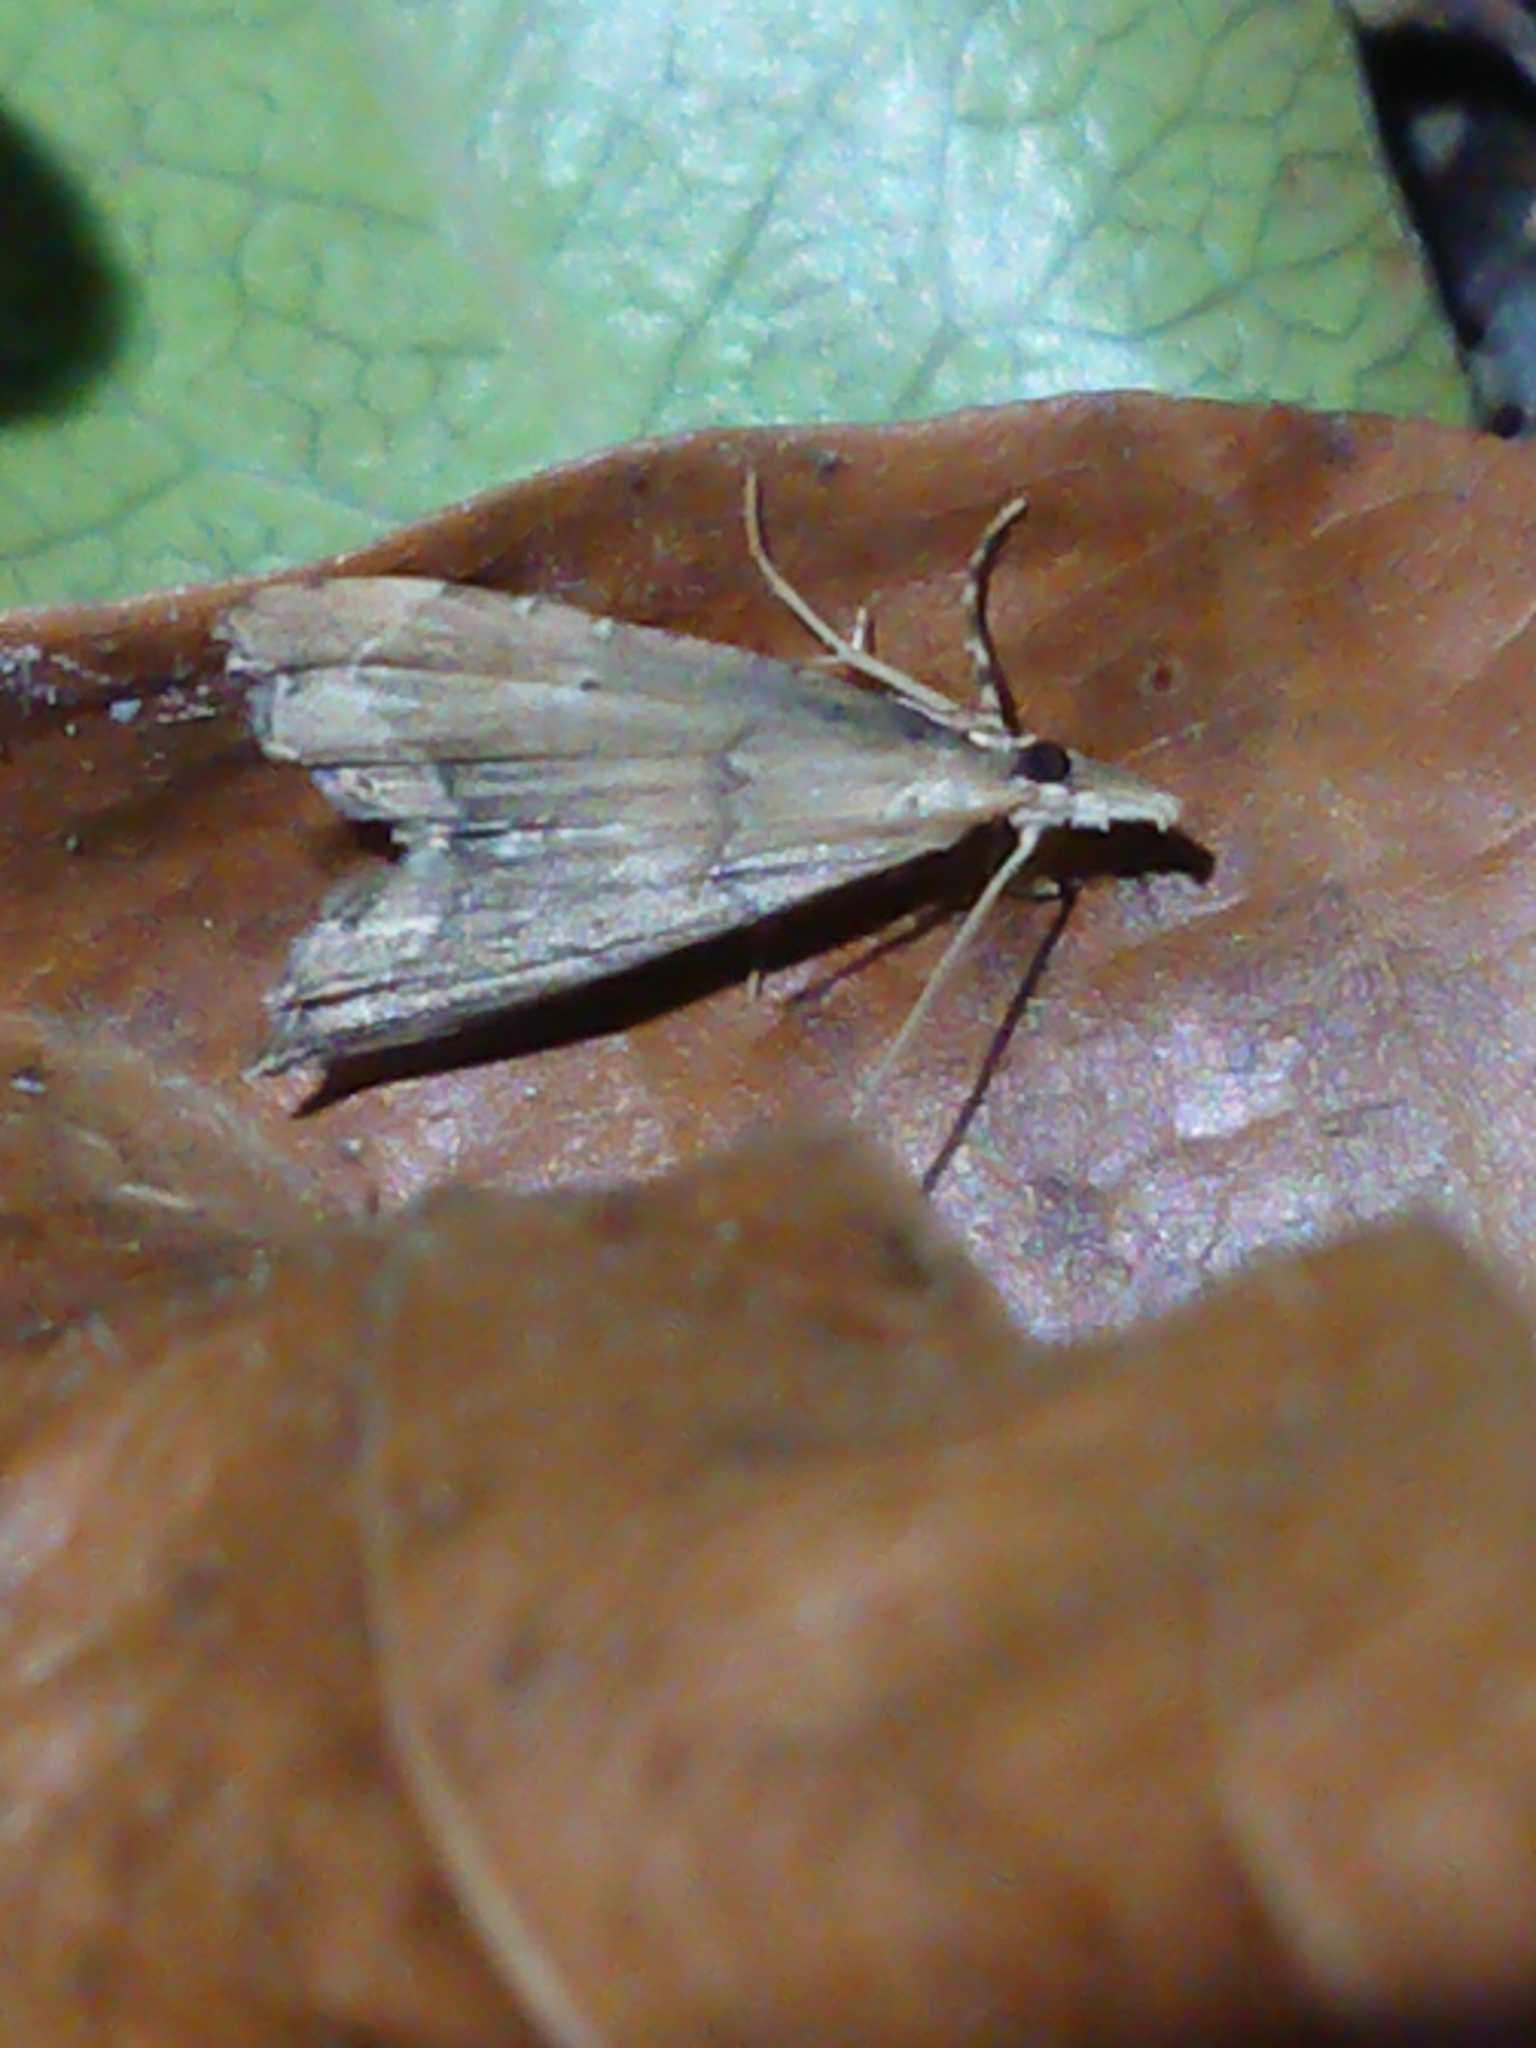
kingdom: Animalia
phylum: Arthropoda
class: Insecta
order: Lepidoptera
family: Crambidae
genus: Diplopseustis
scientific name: Diplopseustis perieresalis
